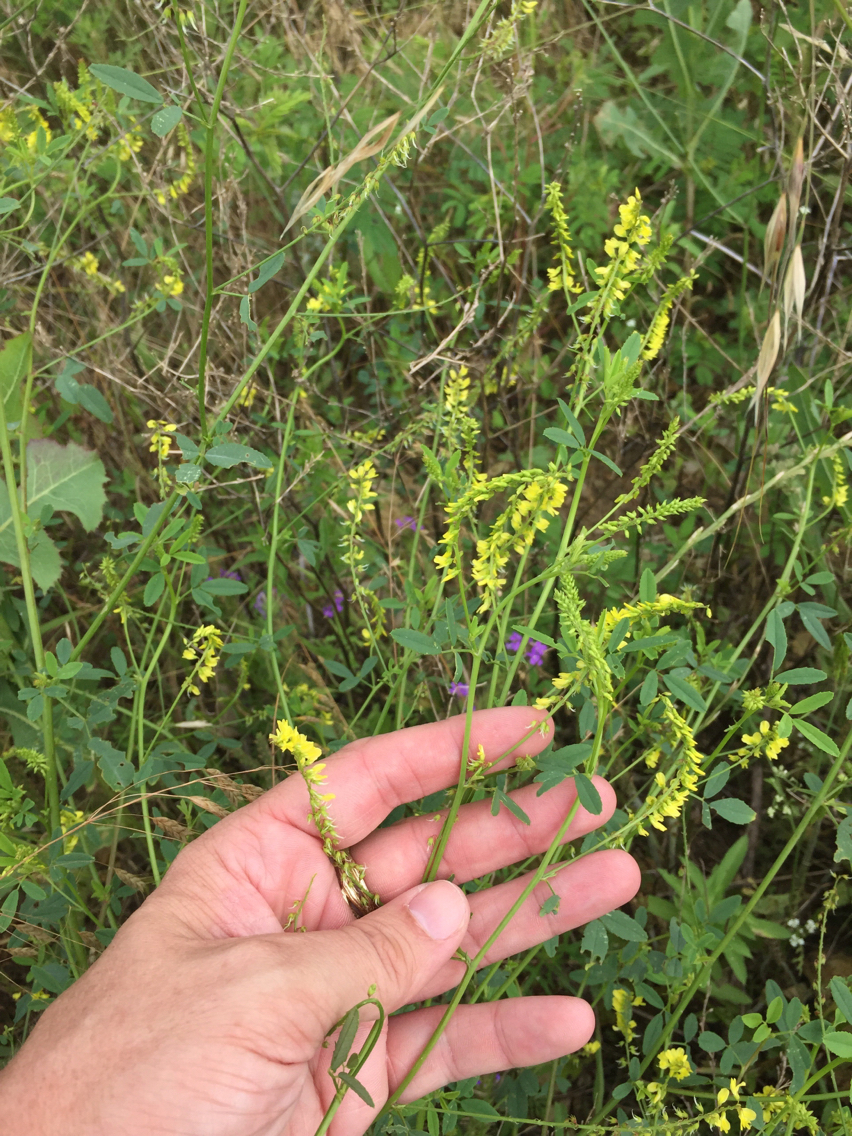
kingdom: Plantae
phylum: Tracheophyta
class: Magnoliopsida
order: Fabales
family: Fabaceae
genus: Melilotus
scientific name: Melilotus officinalis
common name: Sweetclover
